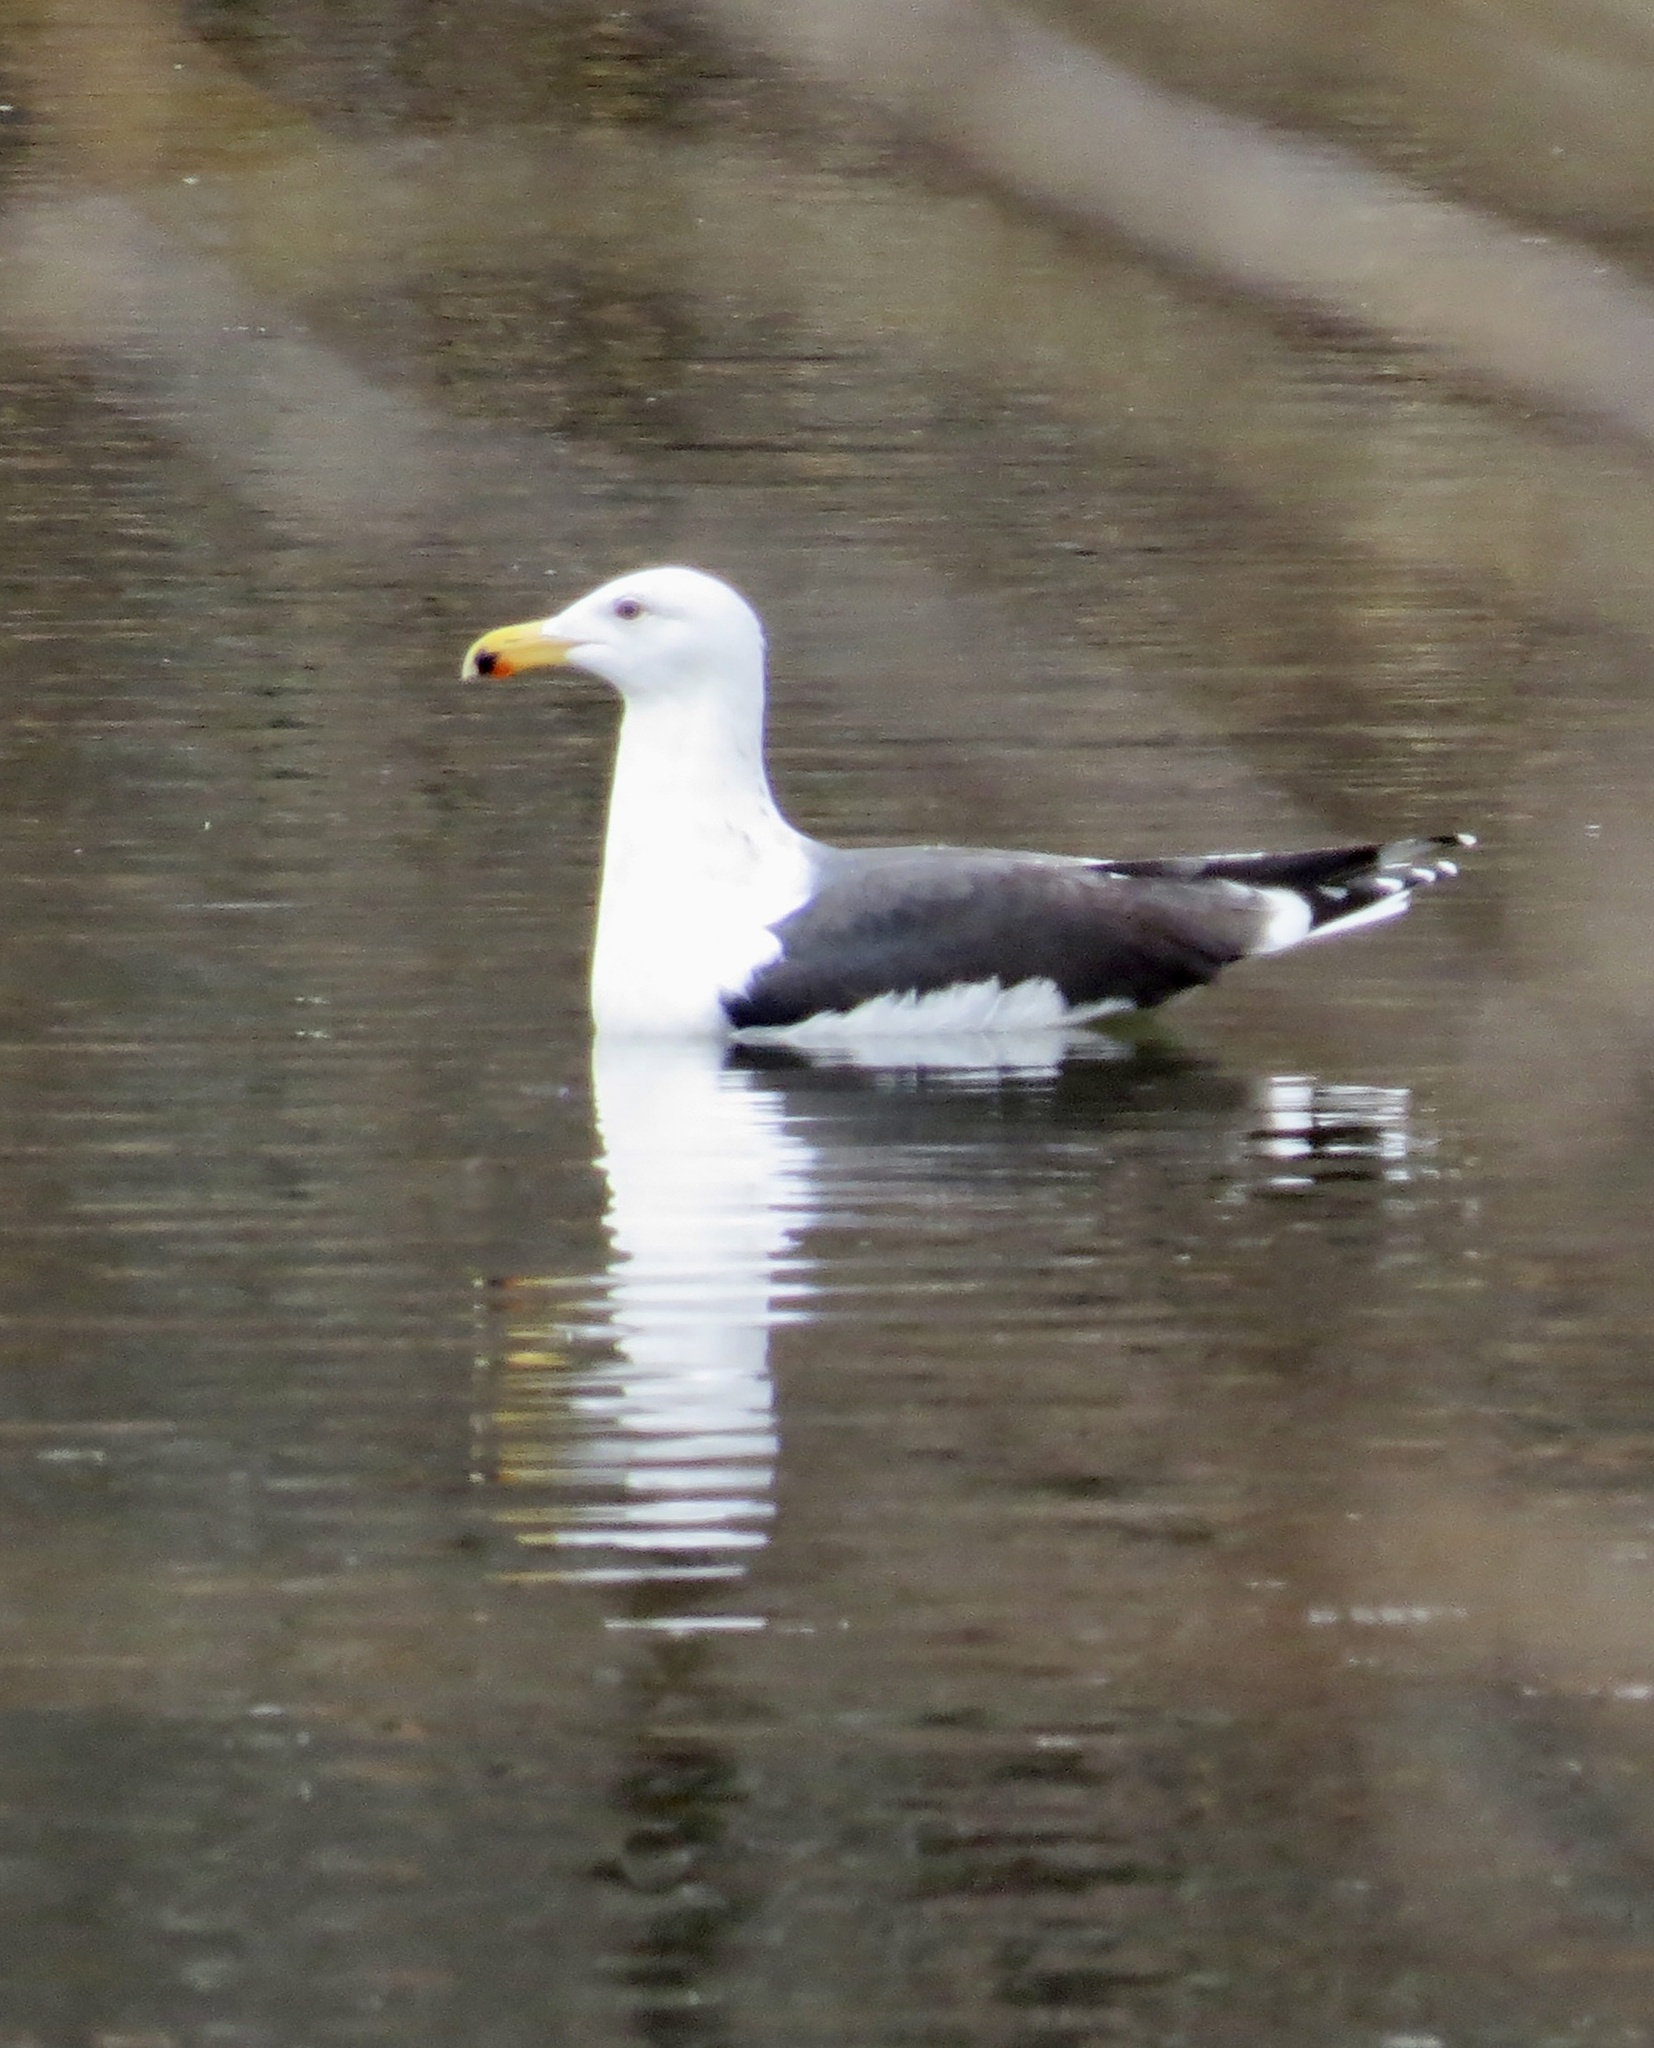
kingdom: Animalia
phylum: Chordata
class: Aves
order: Charadriiformes
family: Laridae
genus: Larus
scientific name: Larus marinus
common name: Great black-backed gull
